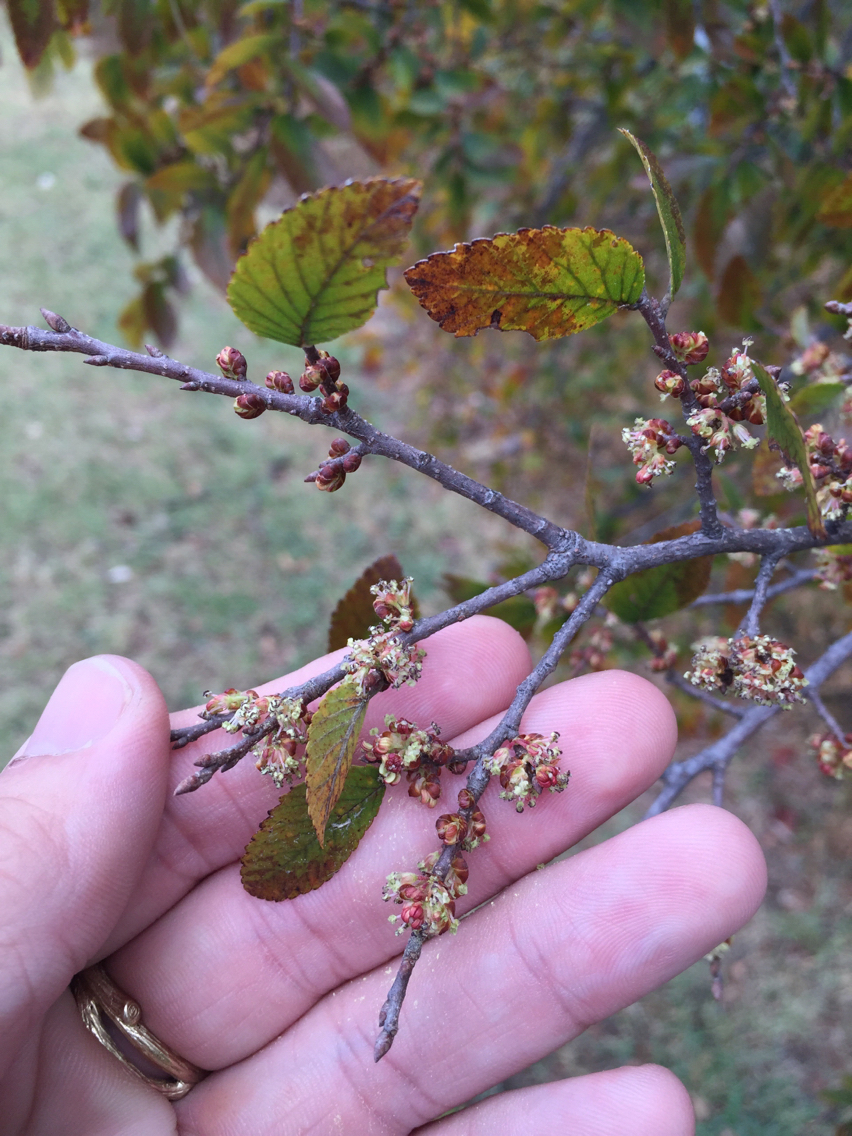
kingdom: Plantae
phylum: Tracheophyta
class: Magnoliopsida
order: Rosales
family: Ulmaceae
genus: Ulmus
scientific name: Ulmus crassifolia
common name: Basket elm
